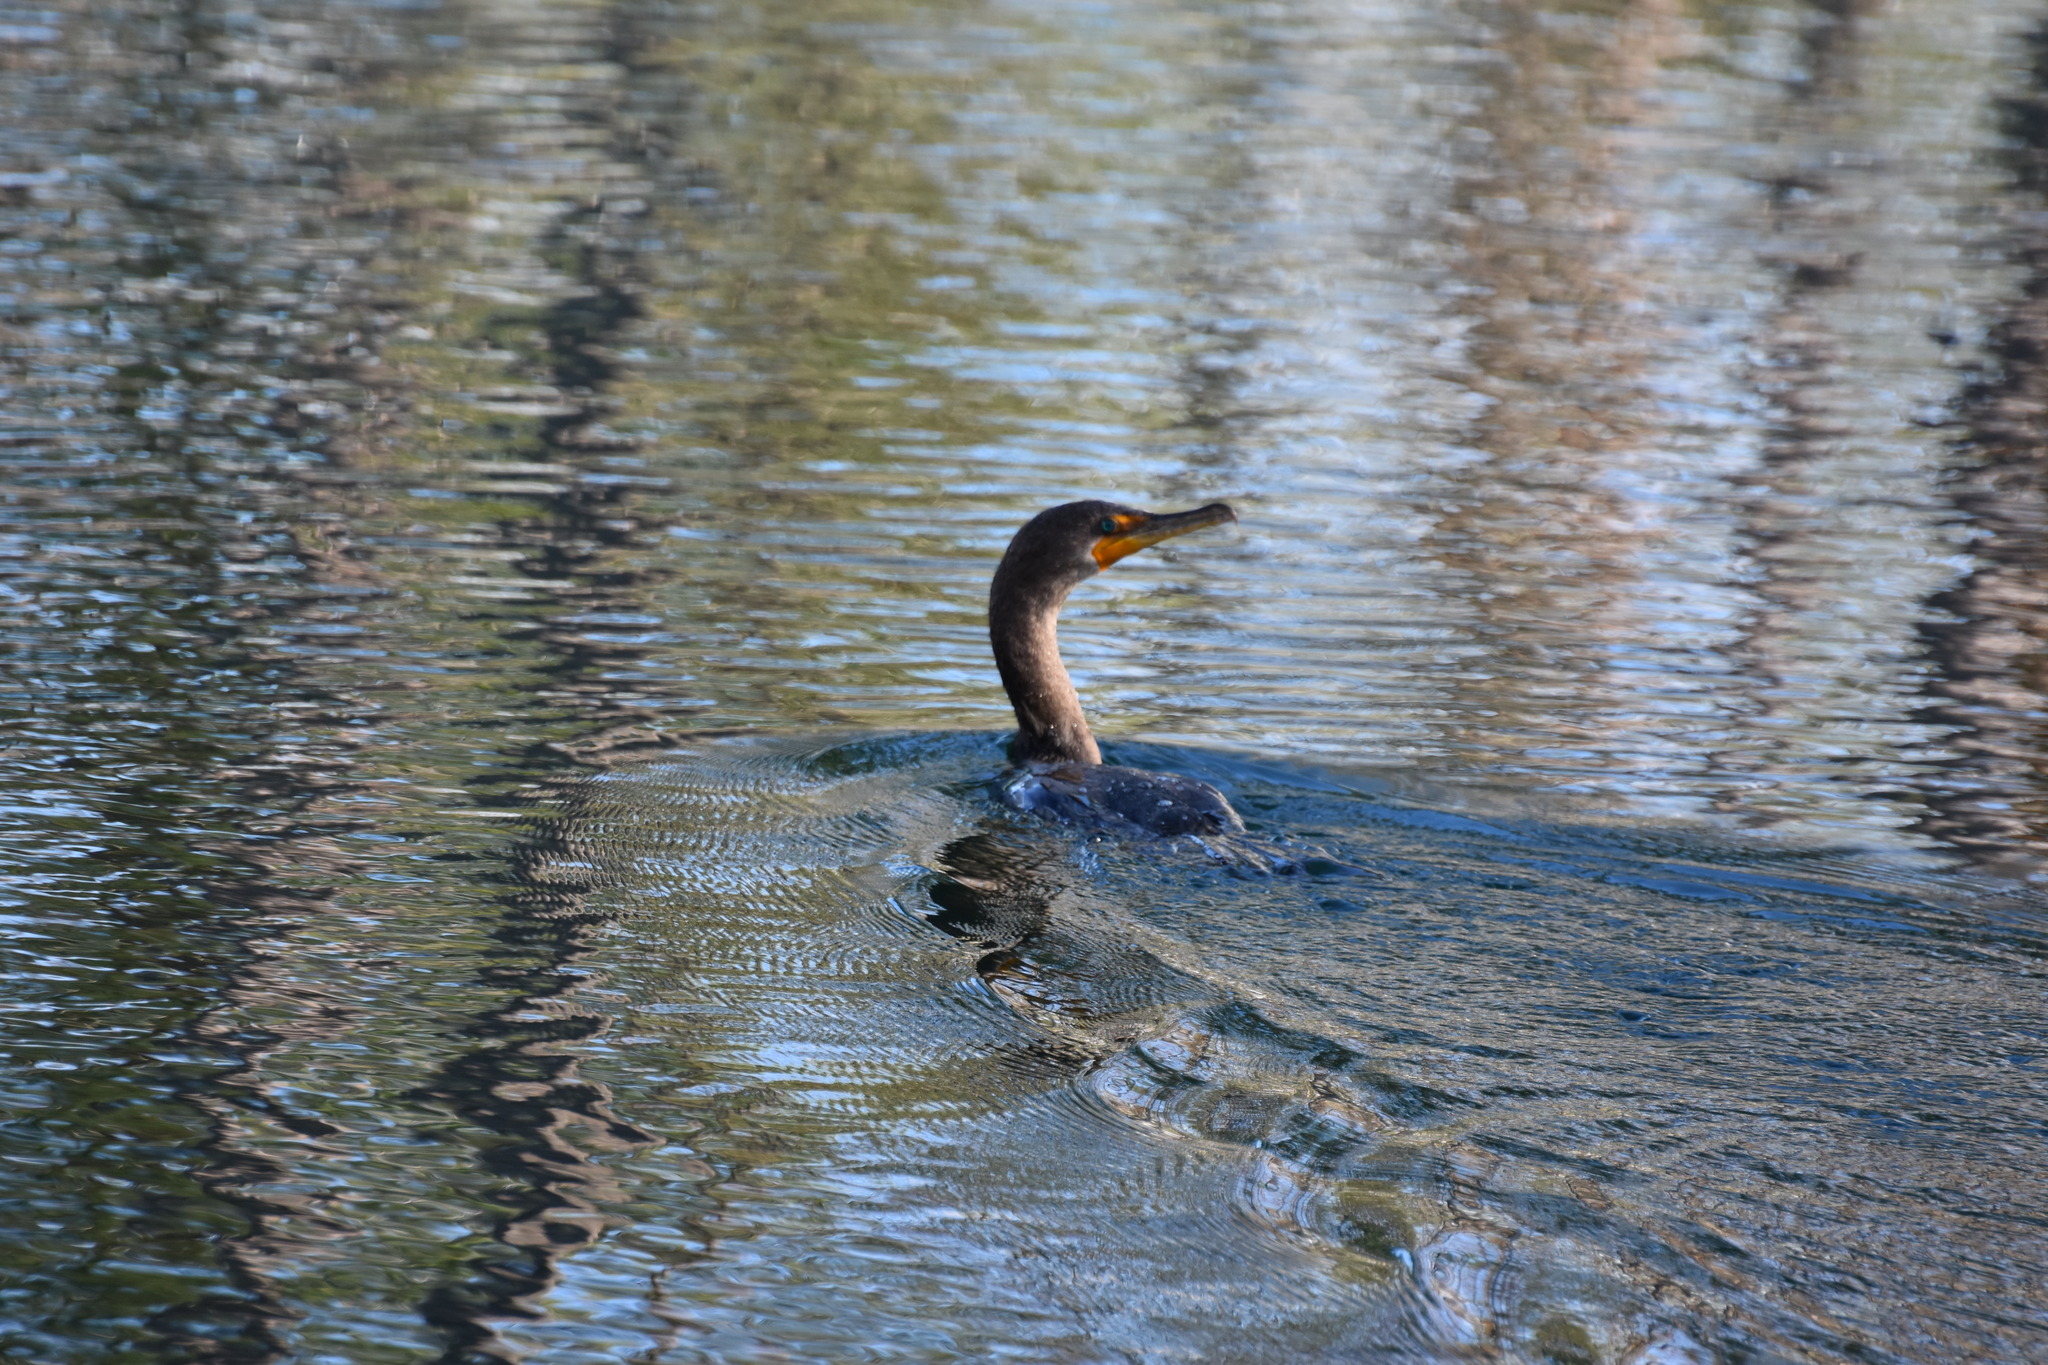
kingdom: Animalia
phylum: Chordata
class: Aves
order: Suliformes
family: Phalacrocoracidae
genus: Phalacrocorax
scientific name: Phalacrocorax auritus
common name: Double-crested cormorant
